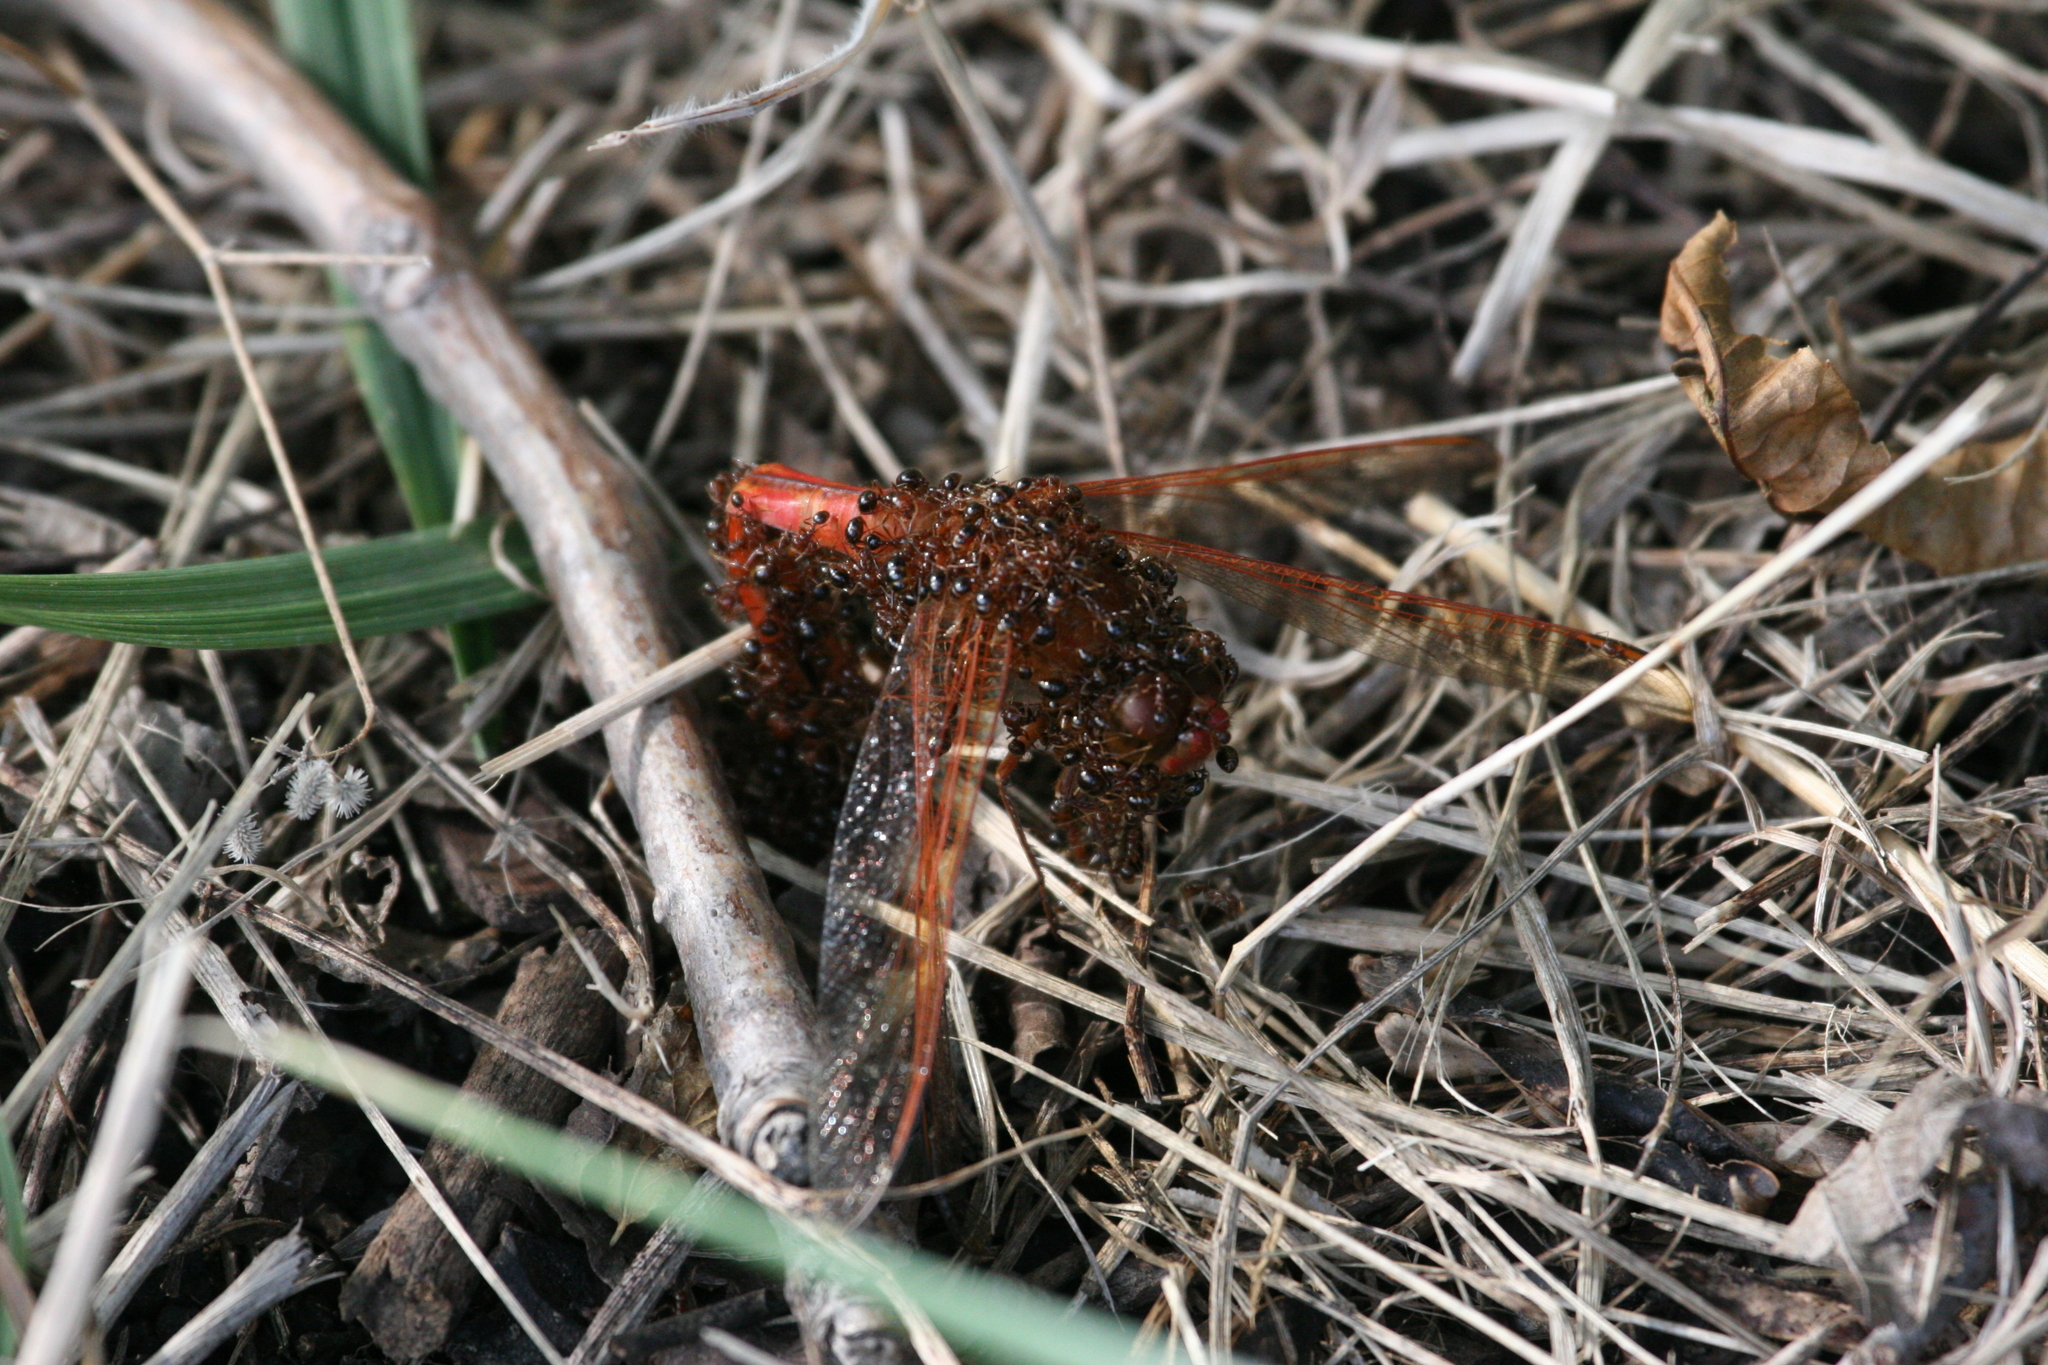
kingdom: Animalia
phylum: Arthropoda
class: Insecta
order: Odonata
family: Libellulidae
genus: Libellula
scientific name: Libellula needhami
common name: Needham's skimmer
